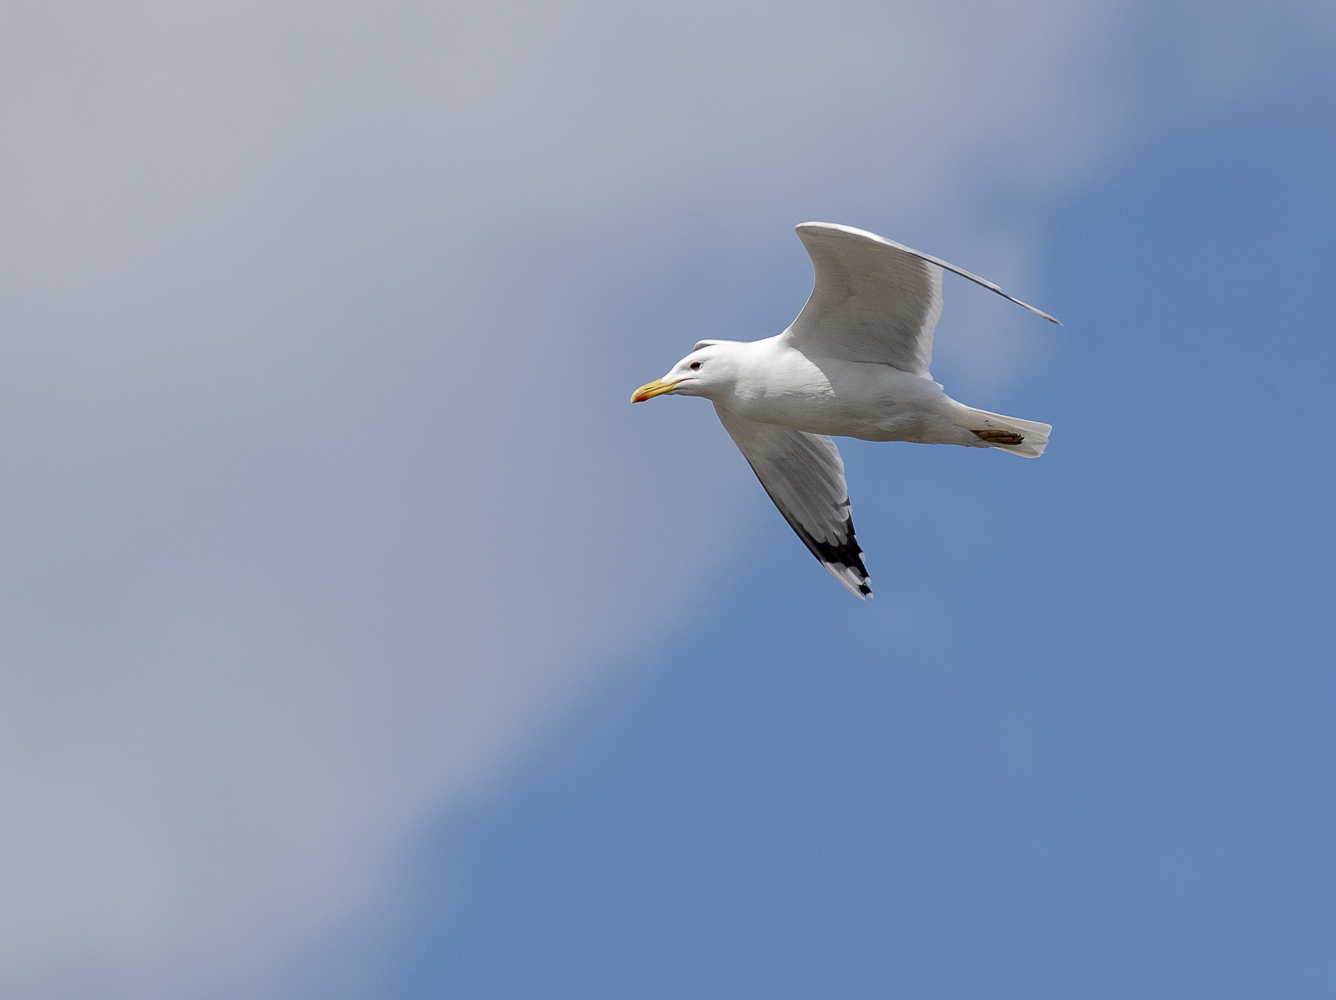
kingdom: Animalia
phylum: Chordata
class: Aves
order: Charadriiformes
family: Laridae
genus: Larus
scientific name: Larus cachinnans
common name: Caspian gull
